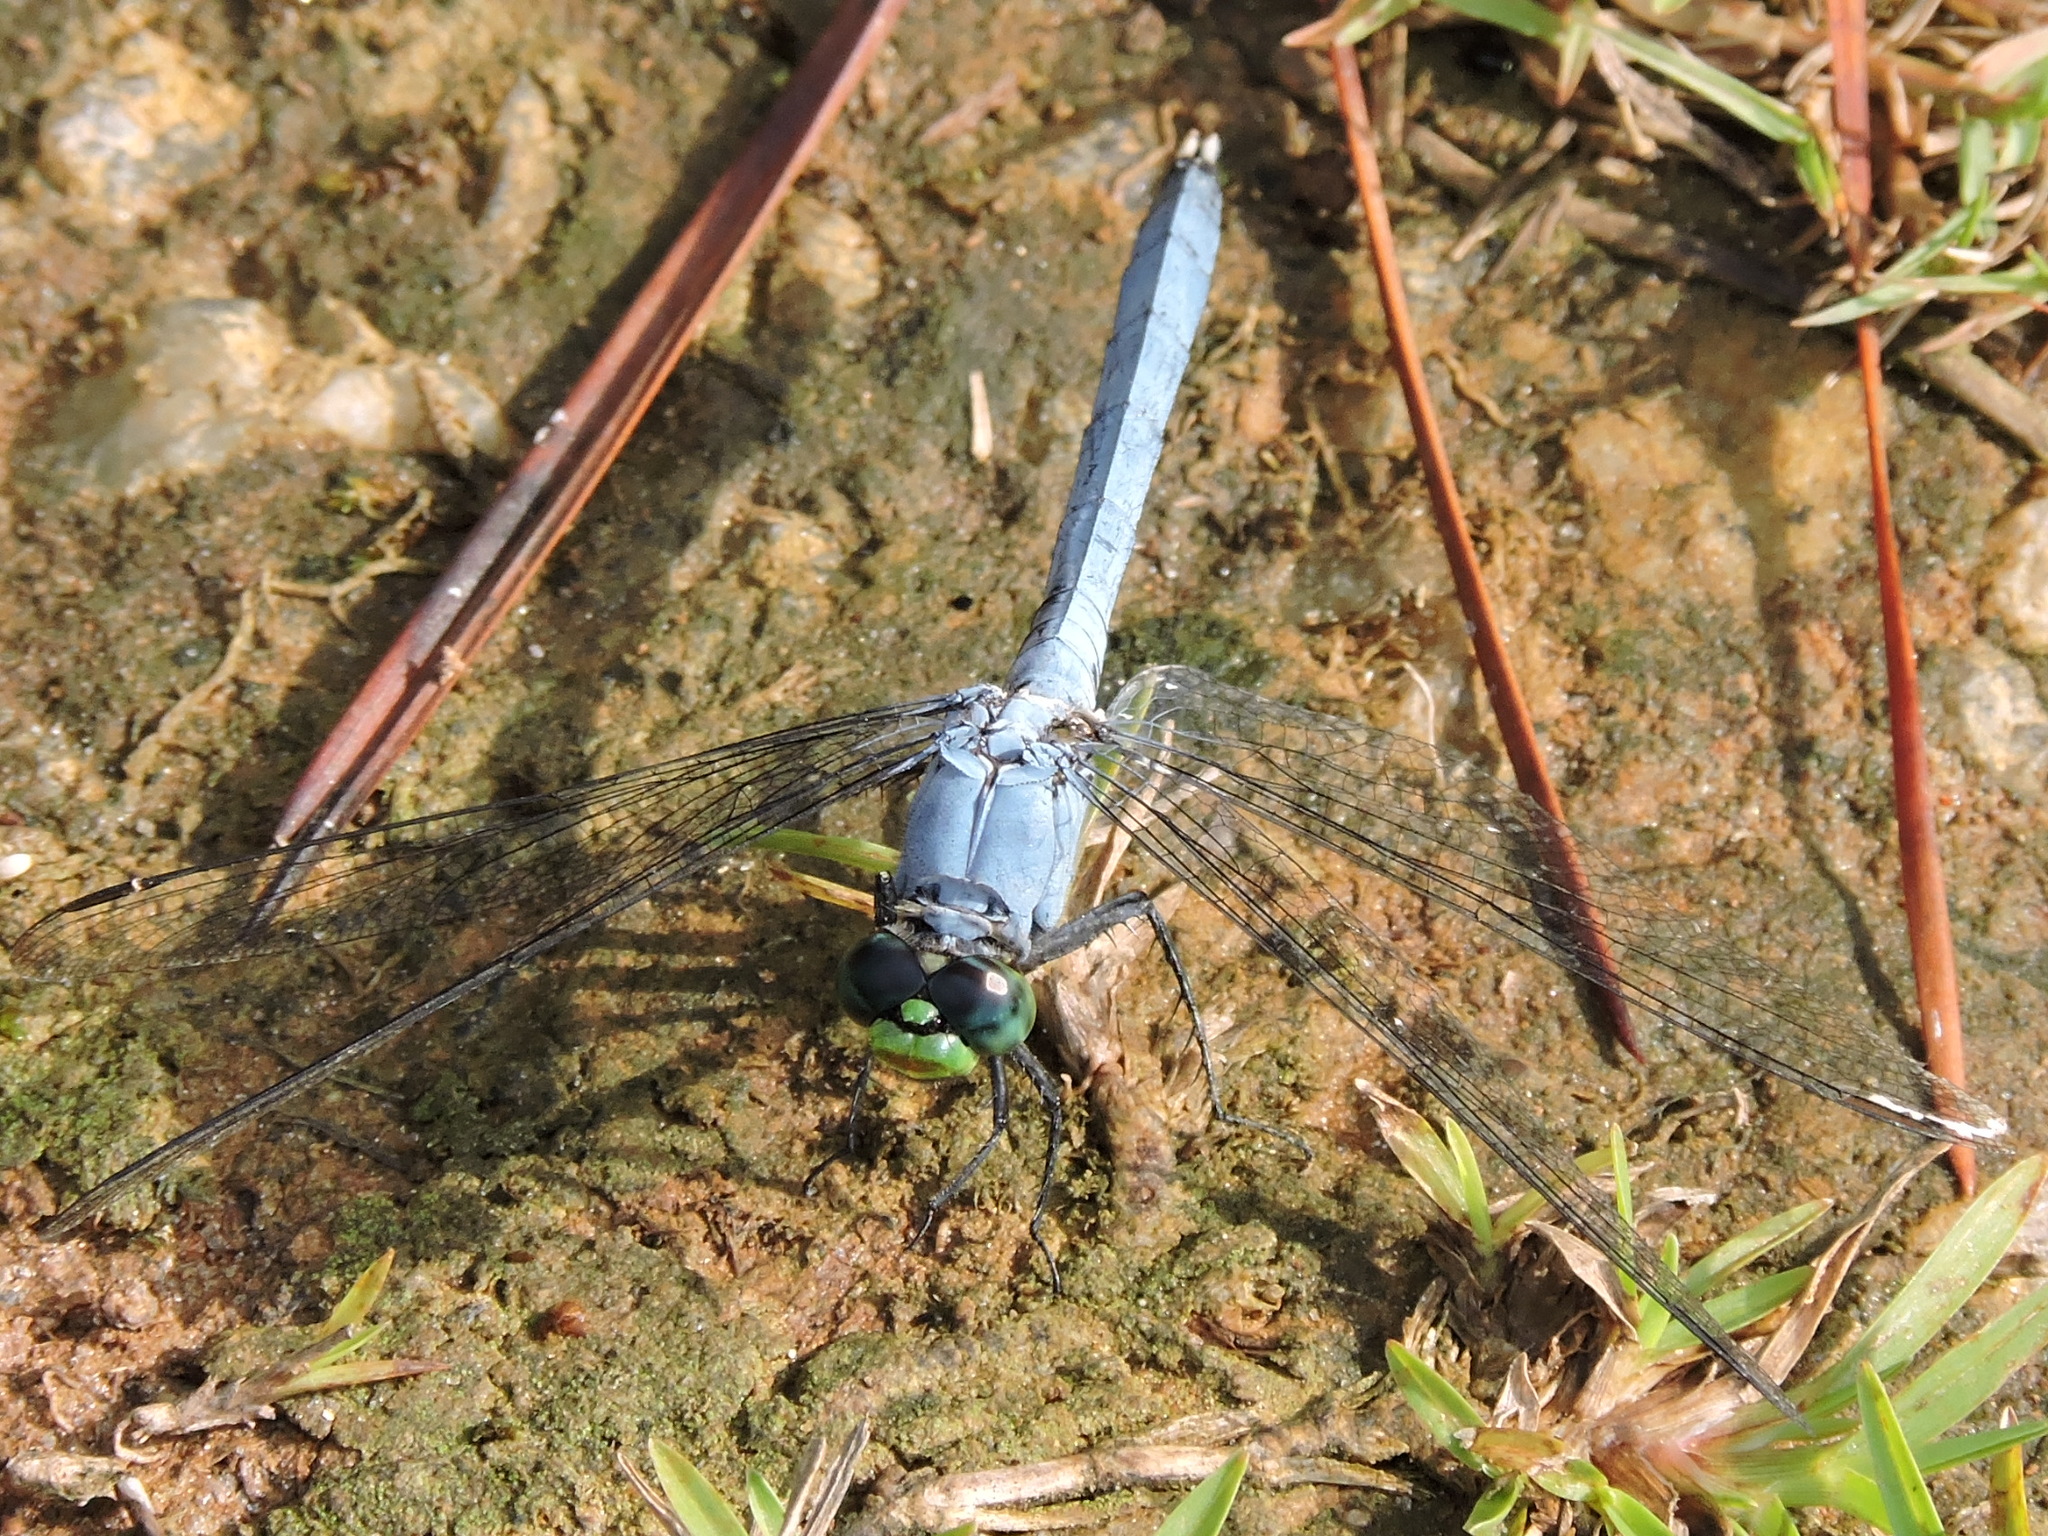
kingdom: Animalia
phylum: Arthropoda
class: Insecta
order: Odonata
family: Libellulidae
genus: Erythemis
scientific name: Erythemis simplicicollis
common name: Eastern pondhawk
